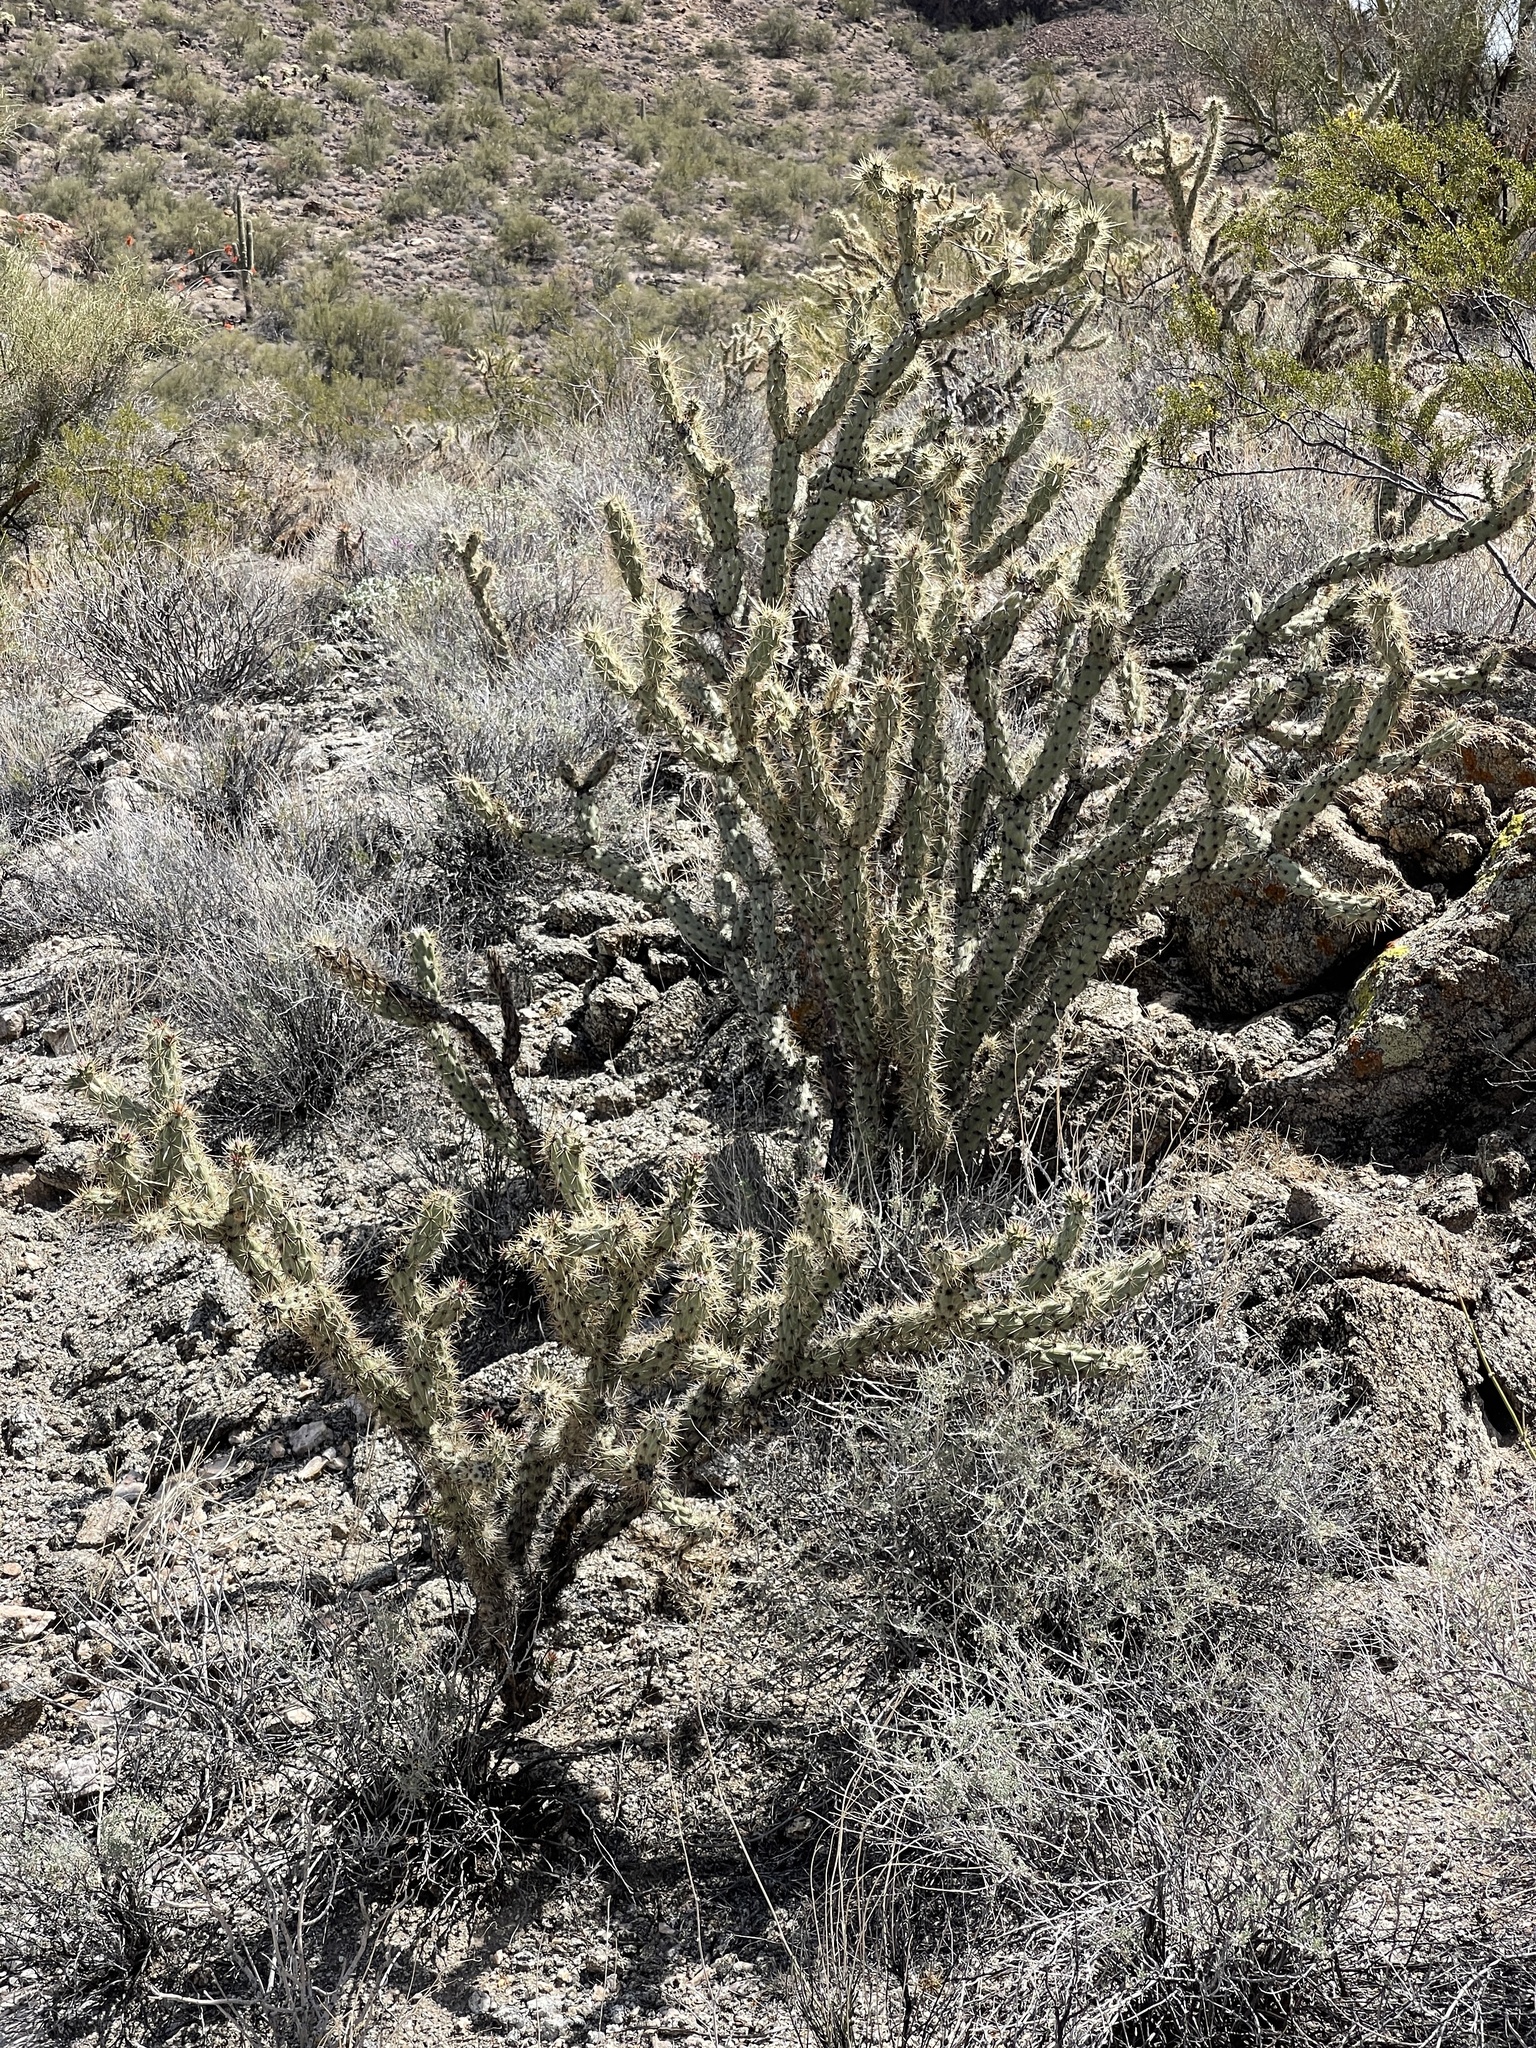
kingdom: Plantae
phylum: Tracheophyta
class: Magnoliopsida
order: Caryophyllales
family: Cactaceae
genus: Cylindropuntia
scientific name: Cylindropuntia acanthocarpa
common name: Buckhorn cholla
